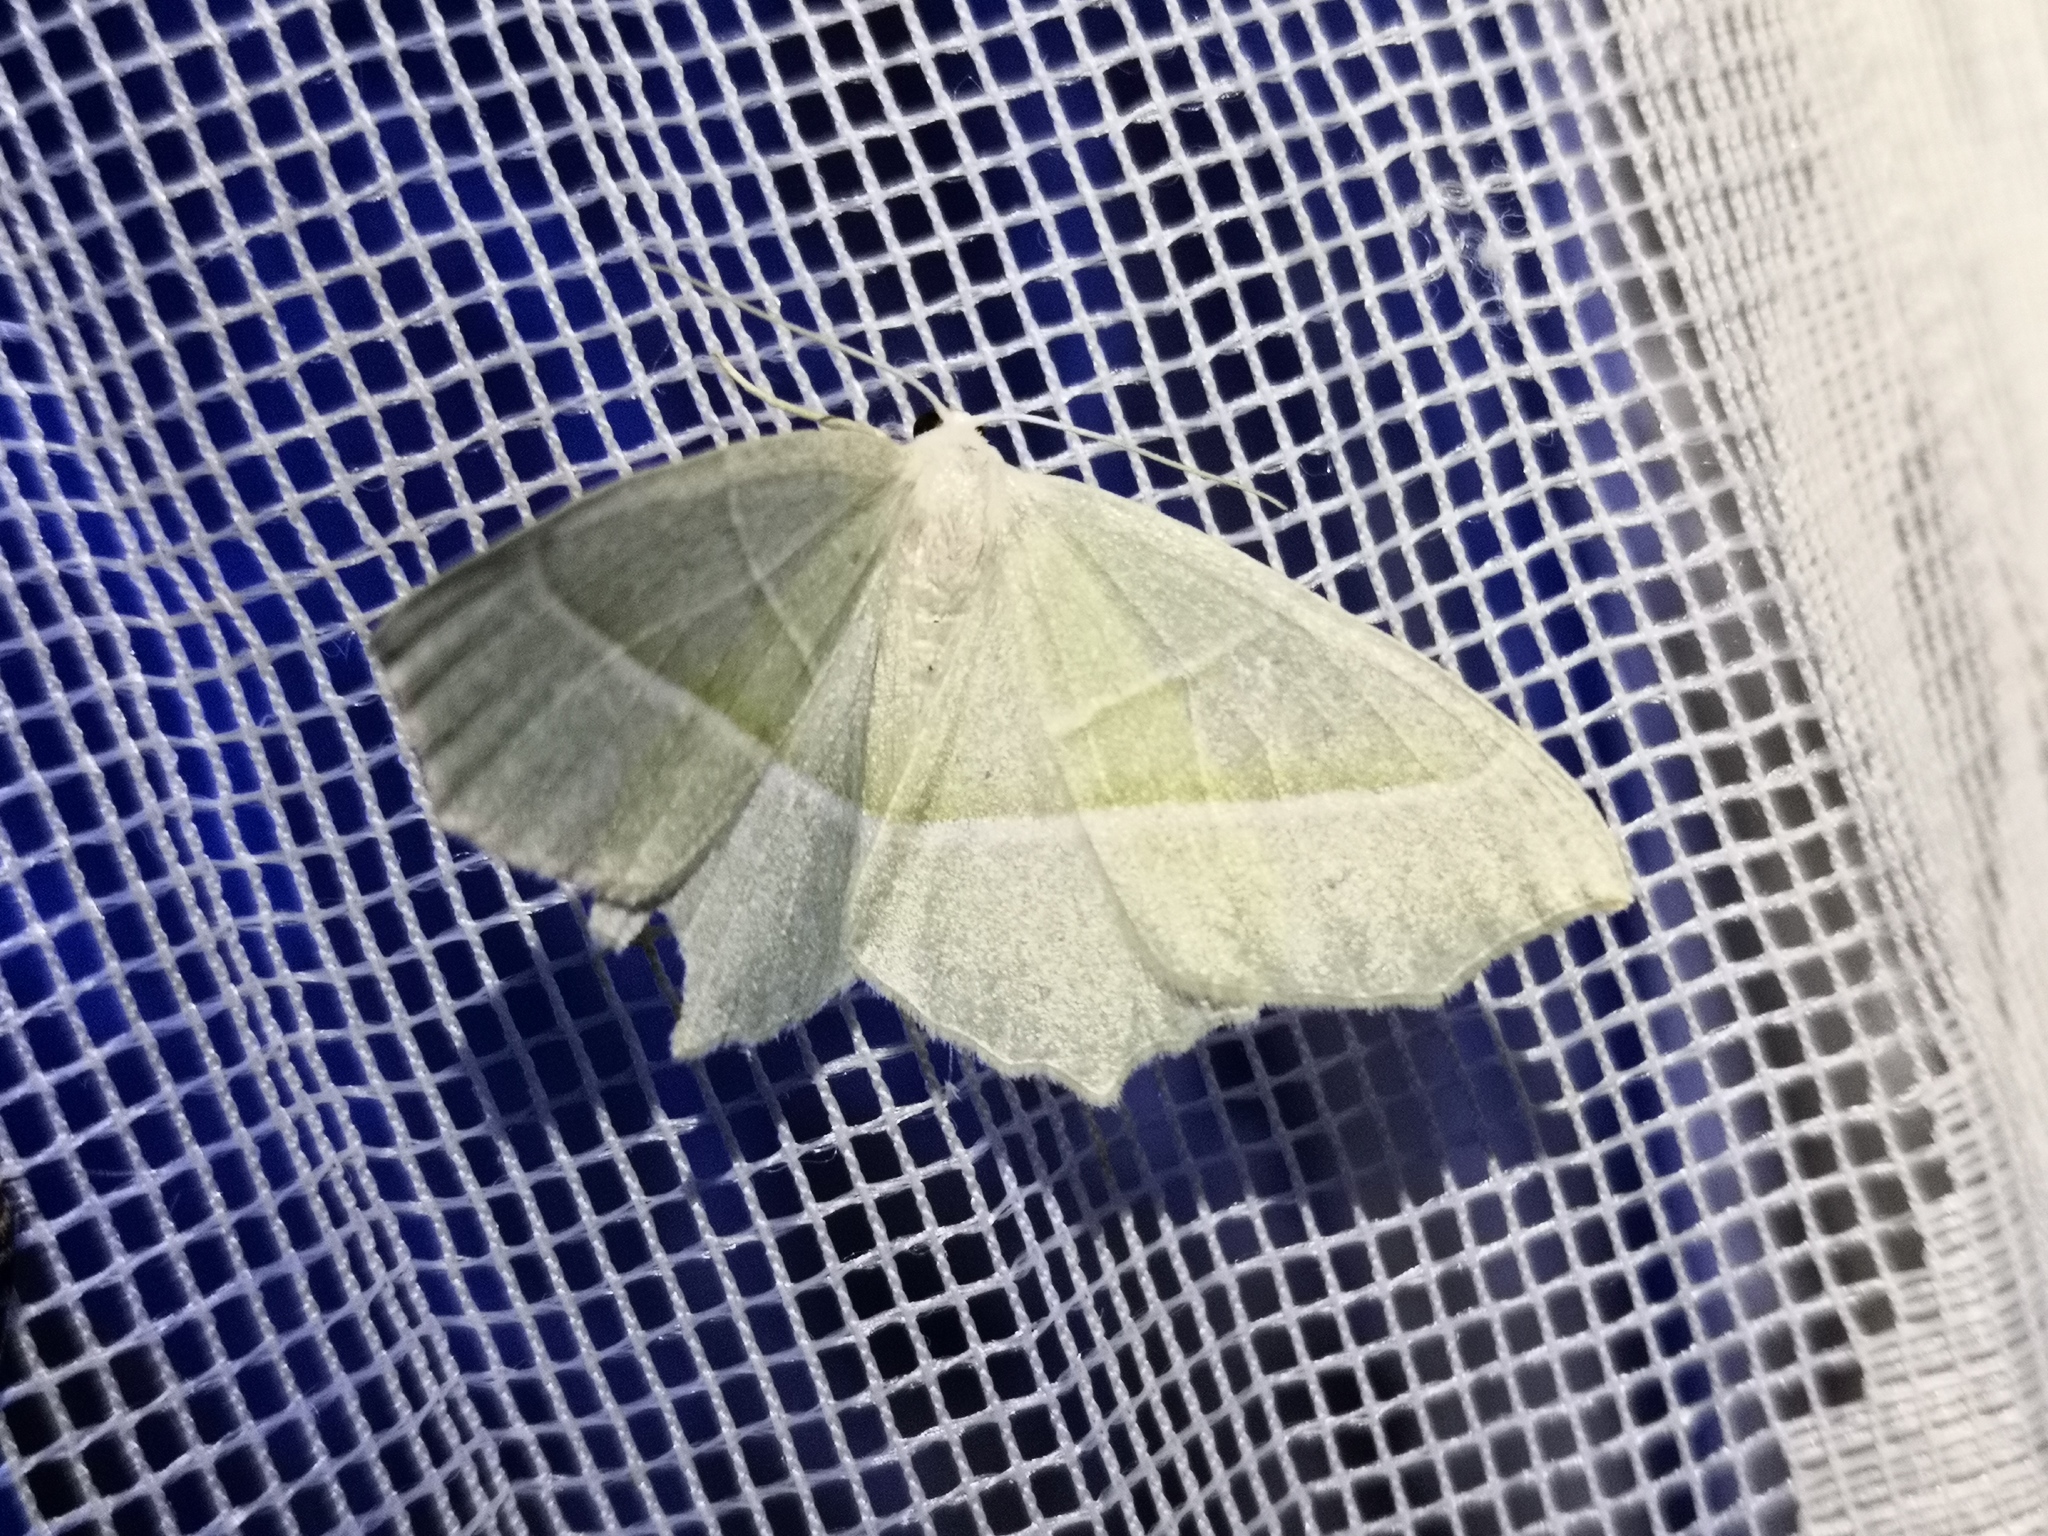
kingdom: Animalia
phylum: Arthropoda
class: Insecta
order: Lepidoptera
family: Geometridae
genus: Campaea
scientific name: Campaea margaritaria
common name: Light emerald
